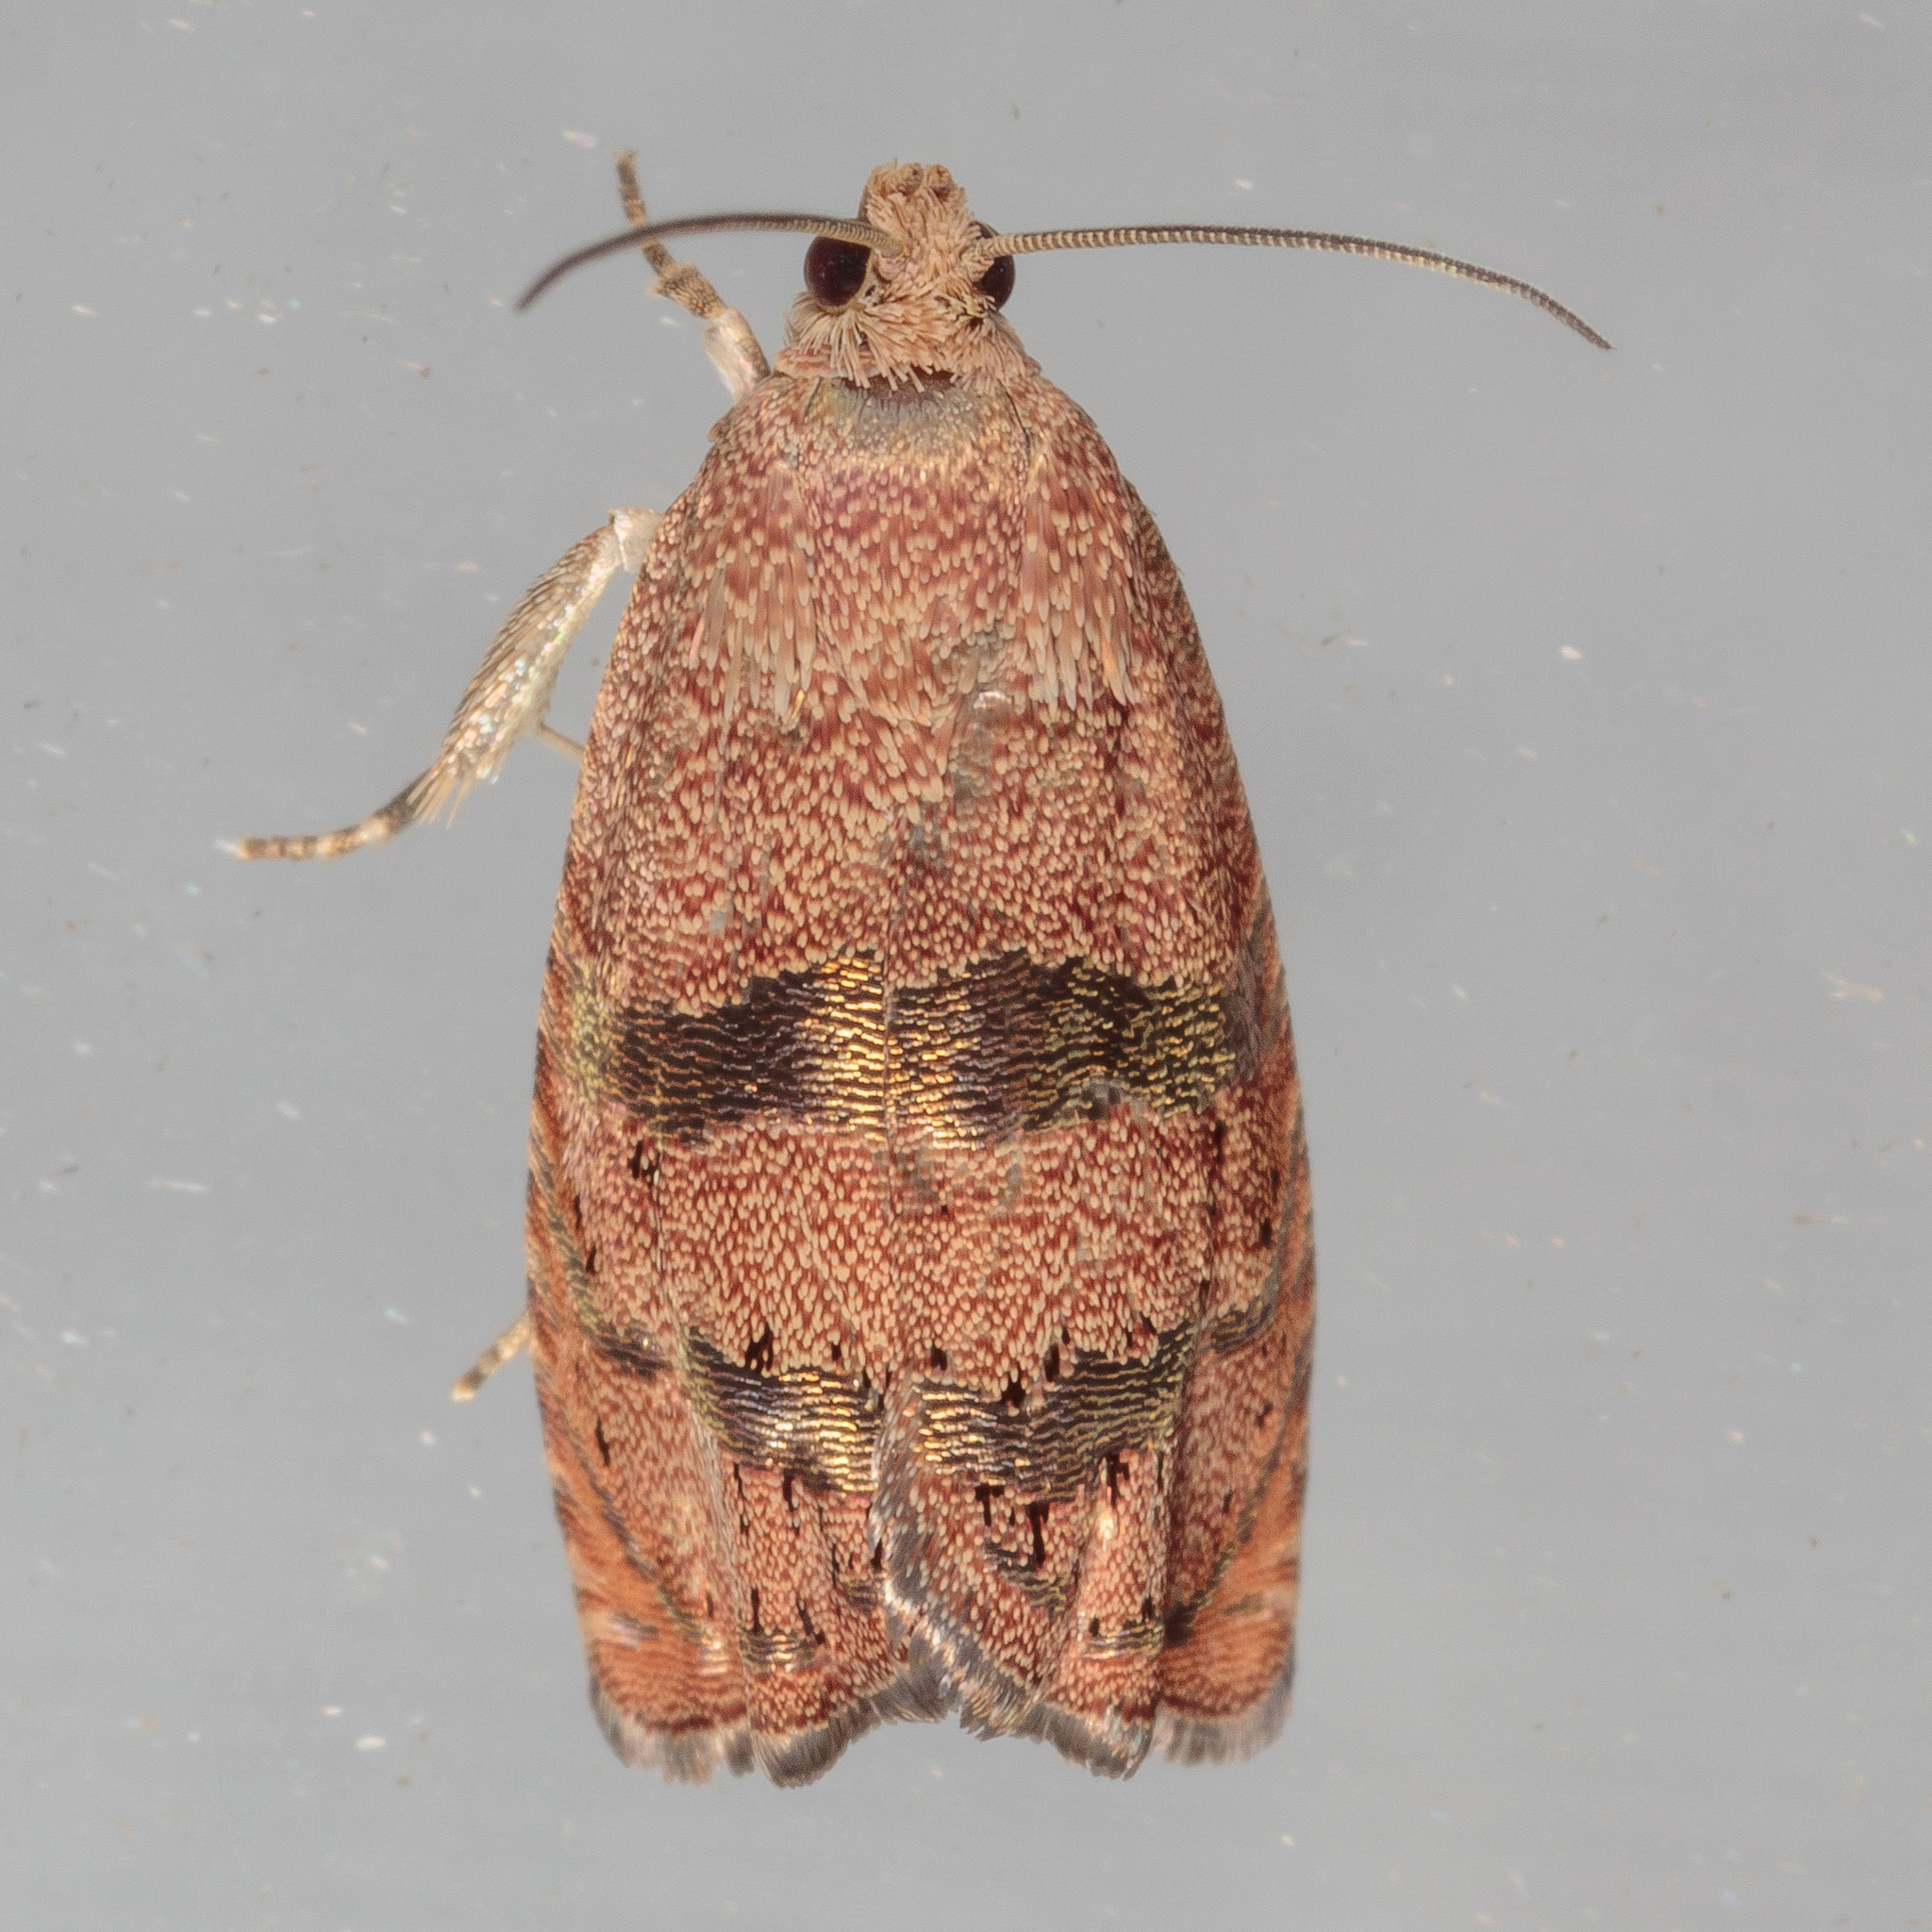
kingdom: Animalia
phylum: Arthropoda
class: Insecta
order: Lepidoptera
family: Tortricidae
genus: Cydia
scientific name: Cydia latiferreana
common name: Filbertworm moth
